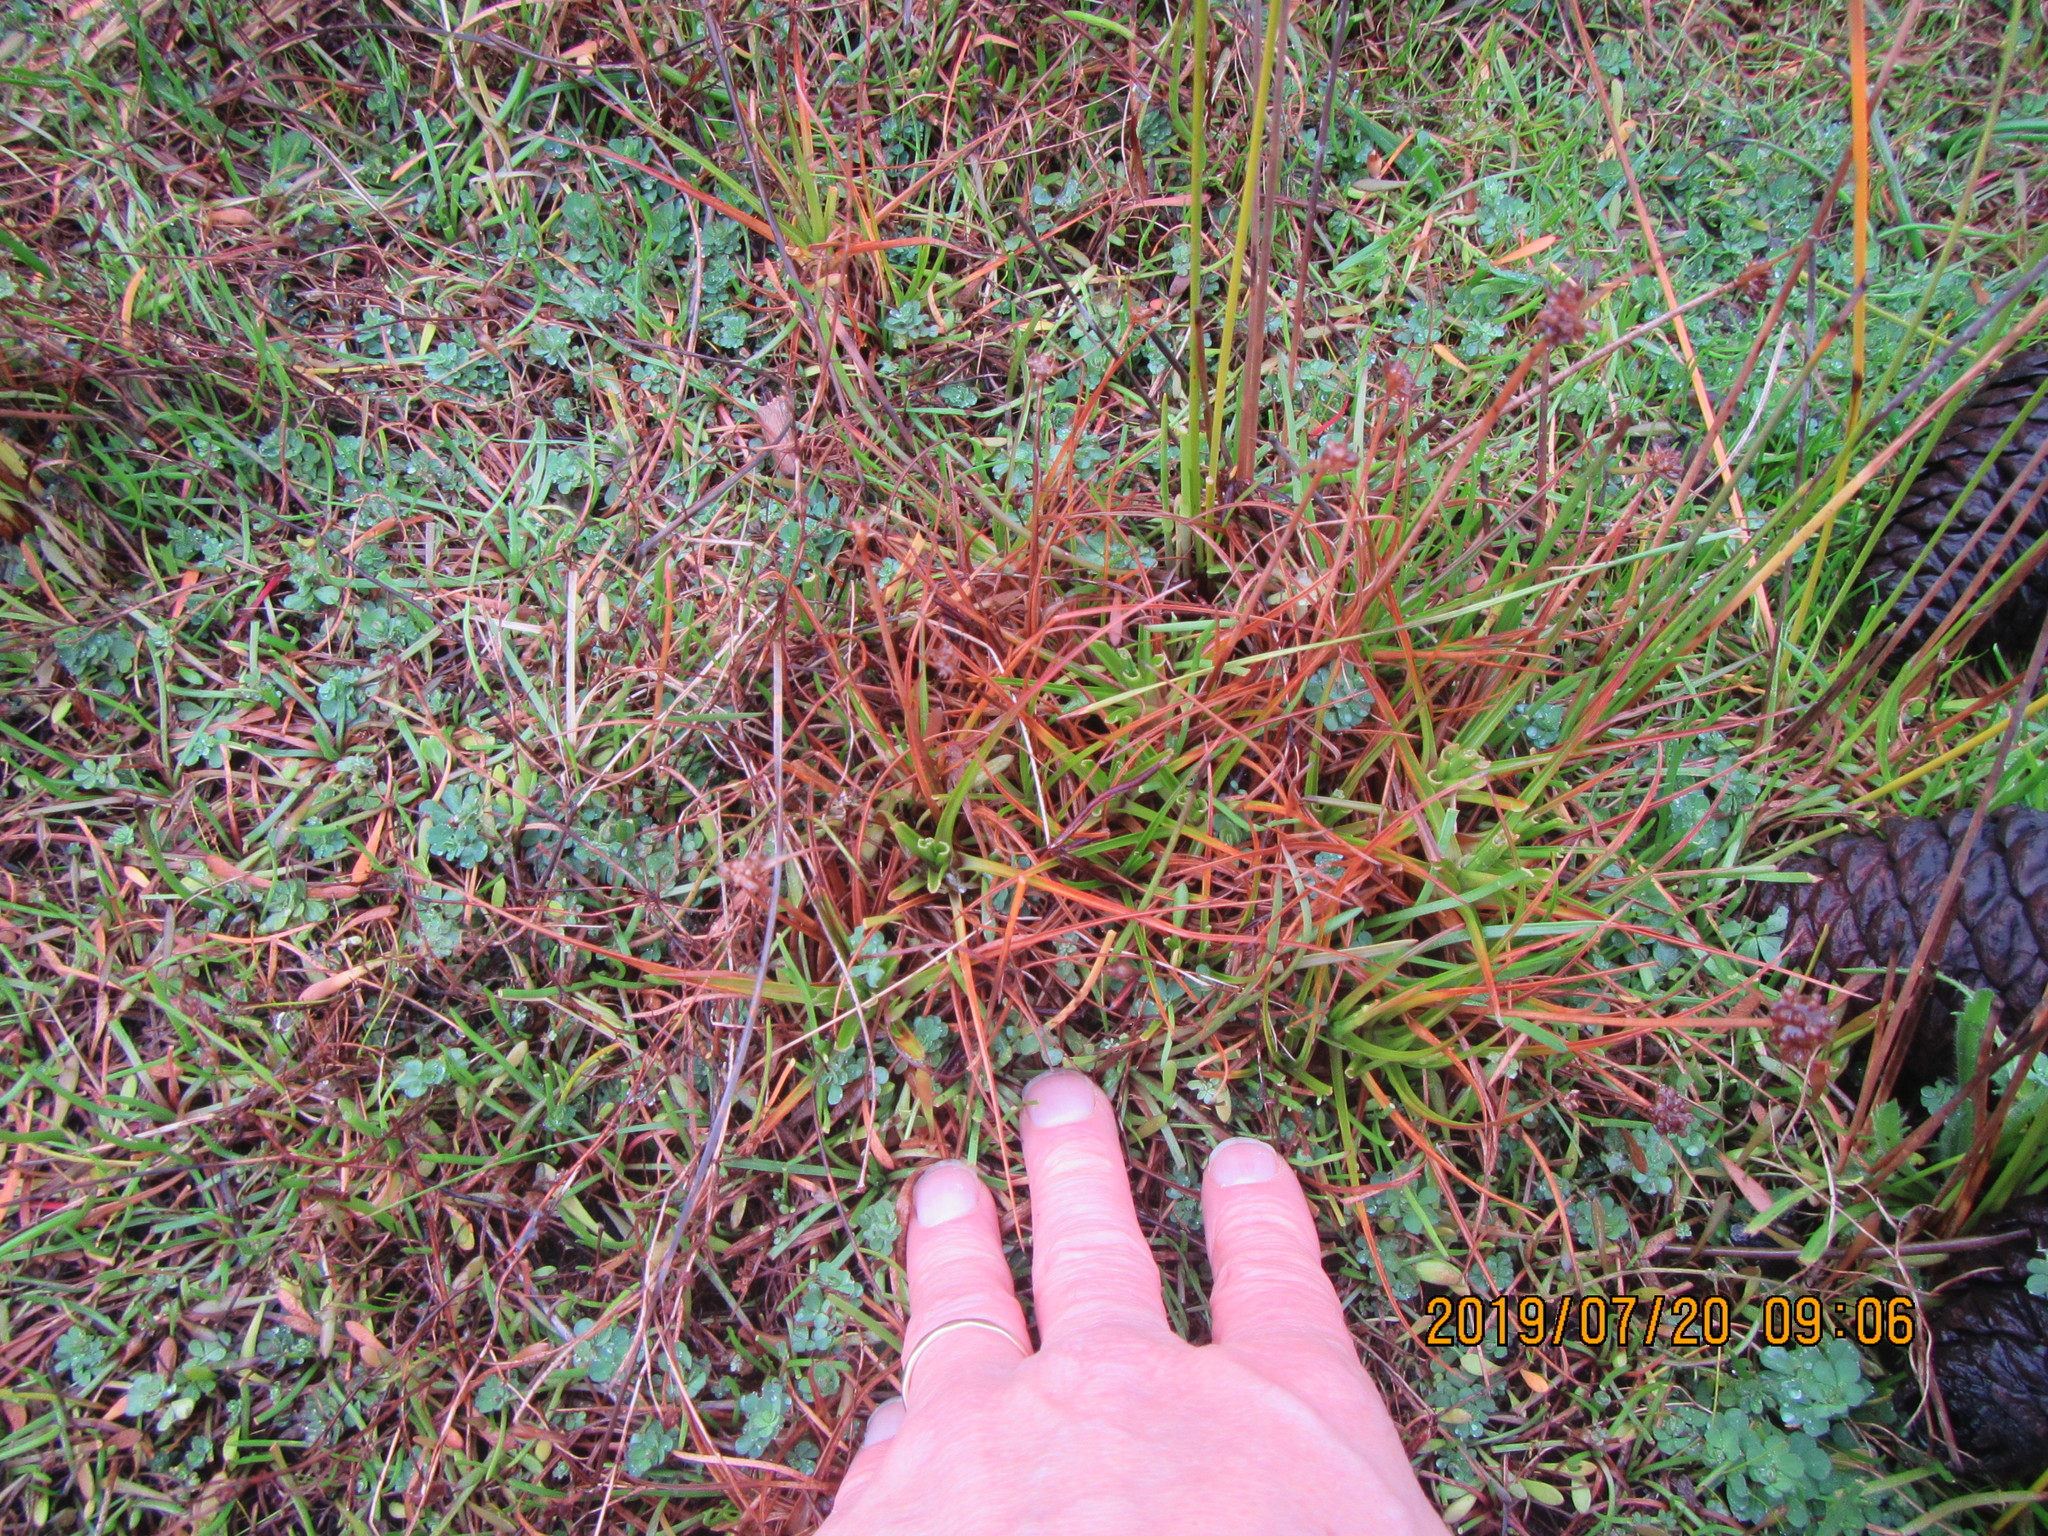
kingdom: Plantae
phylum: Tracheophyta
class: Liliopsida
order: Poales
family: Juncaceae
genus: Juncus
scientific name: Juncus caespiticius
